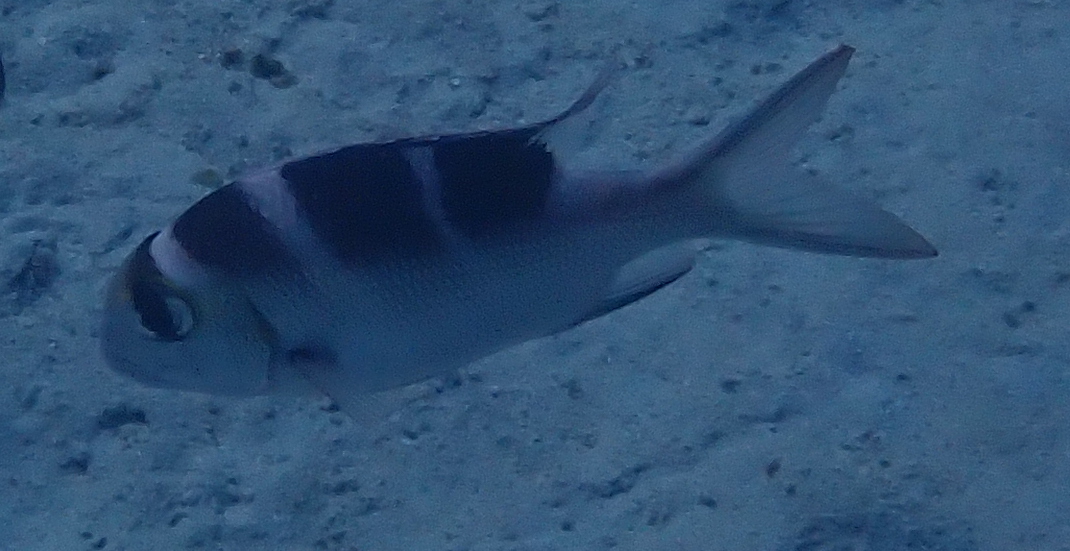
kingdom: Animalia
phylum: Chordata
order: Perciformes
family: Lethrinidae
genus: Monotaxis
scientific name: Monotaxis grandoculis
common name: Bigeye emperor
